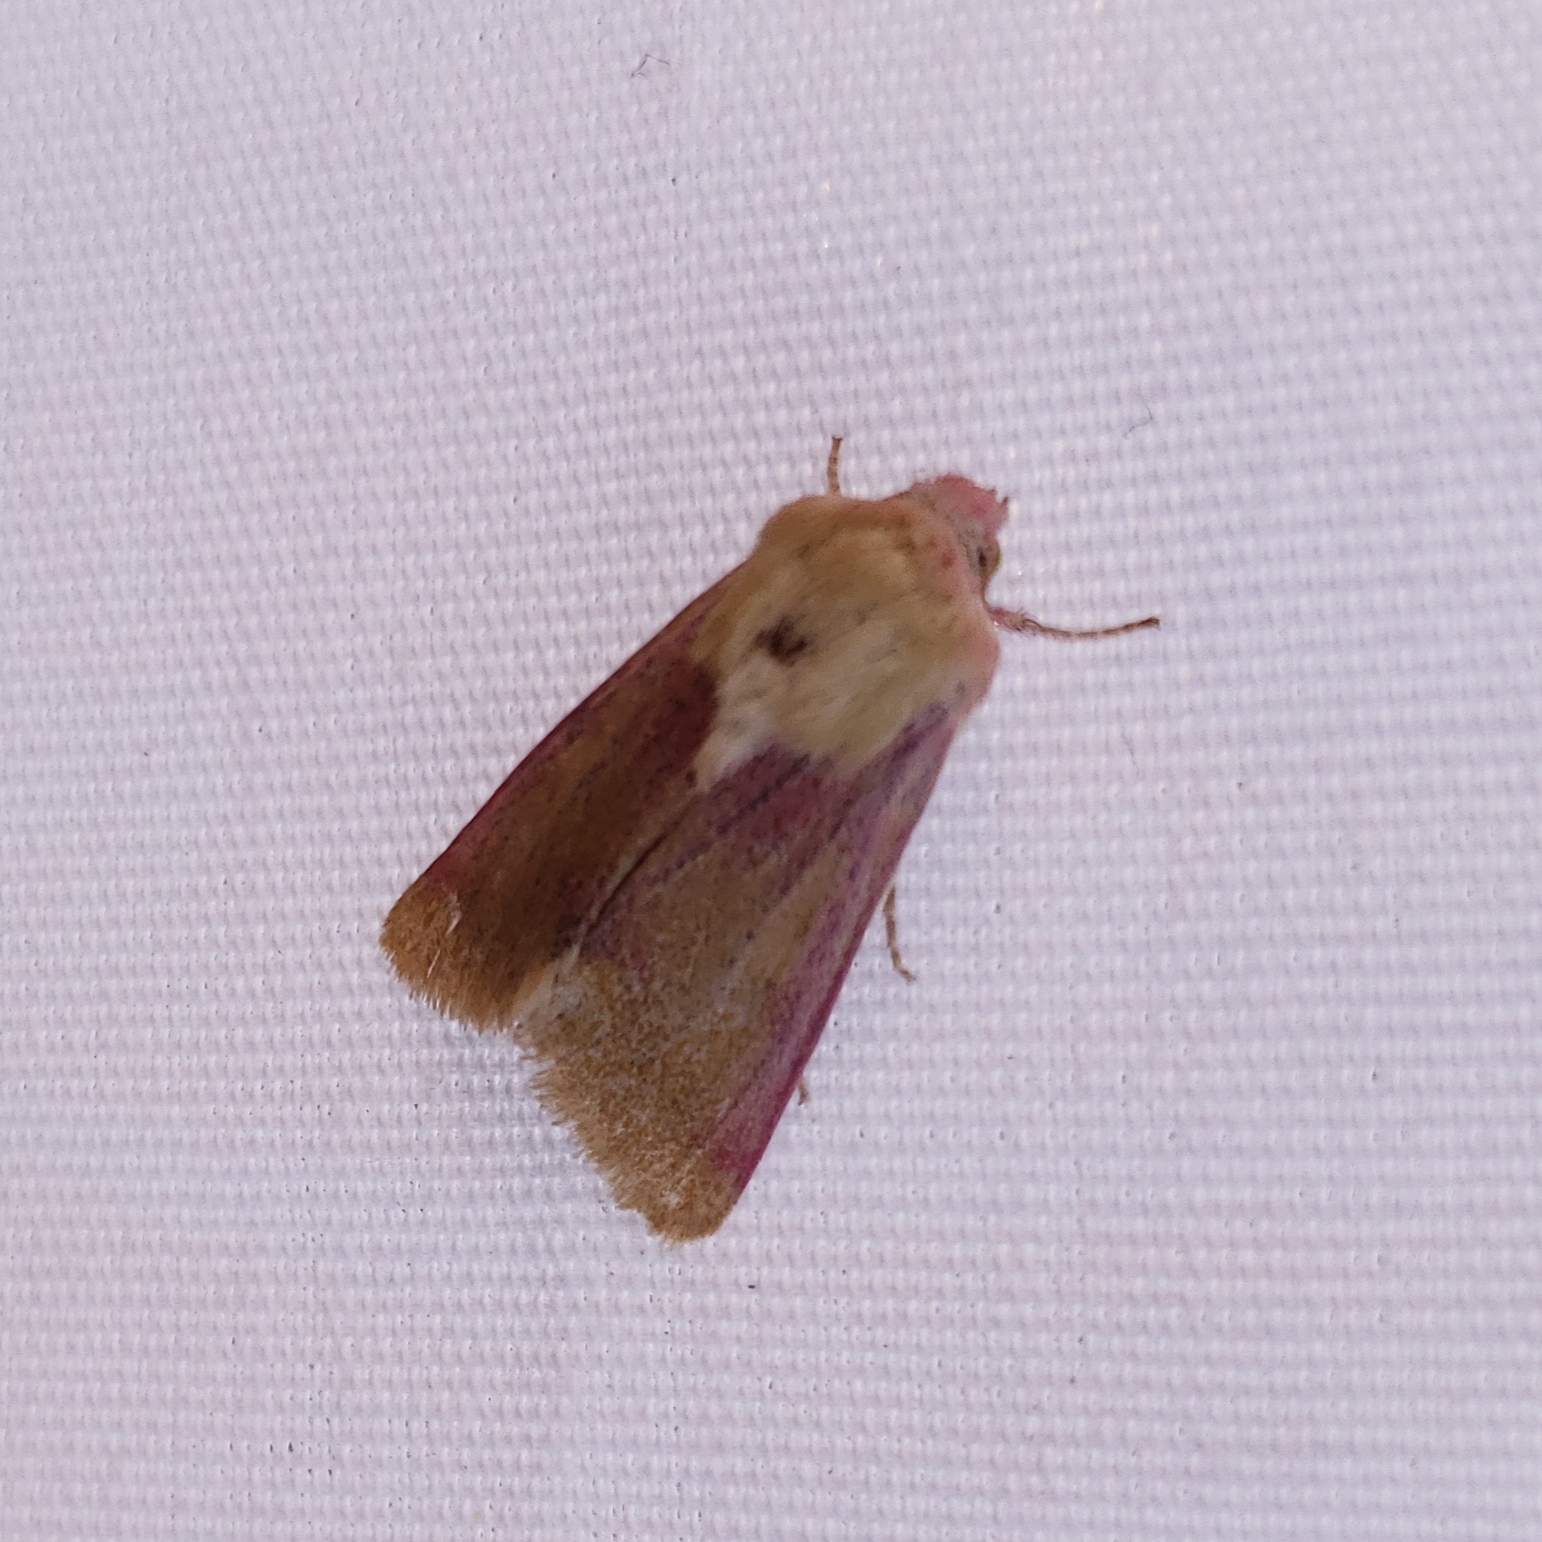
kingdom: Animalia
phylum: Arthropoda
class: Insecta
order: Lepidoptera
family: Noctuidae
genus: Schinia
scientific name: Schinia felicitata
